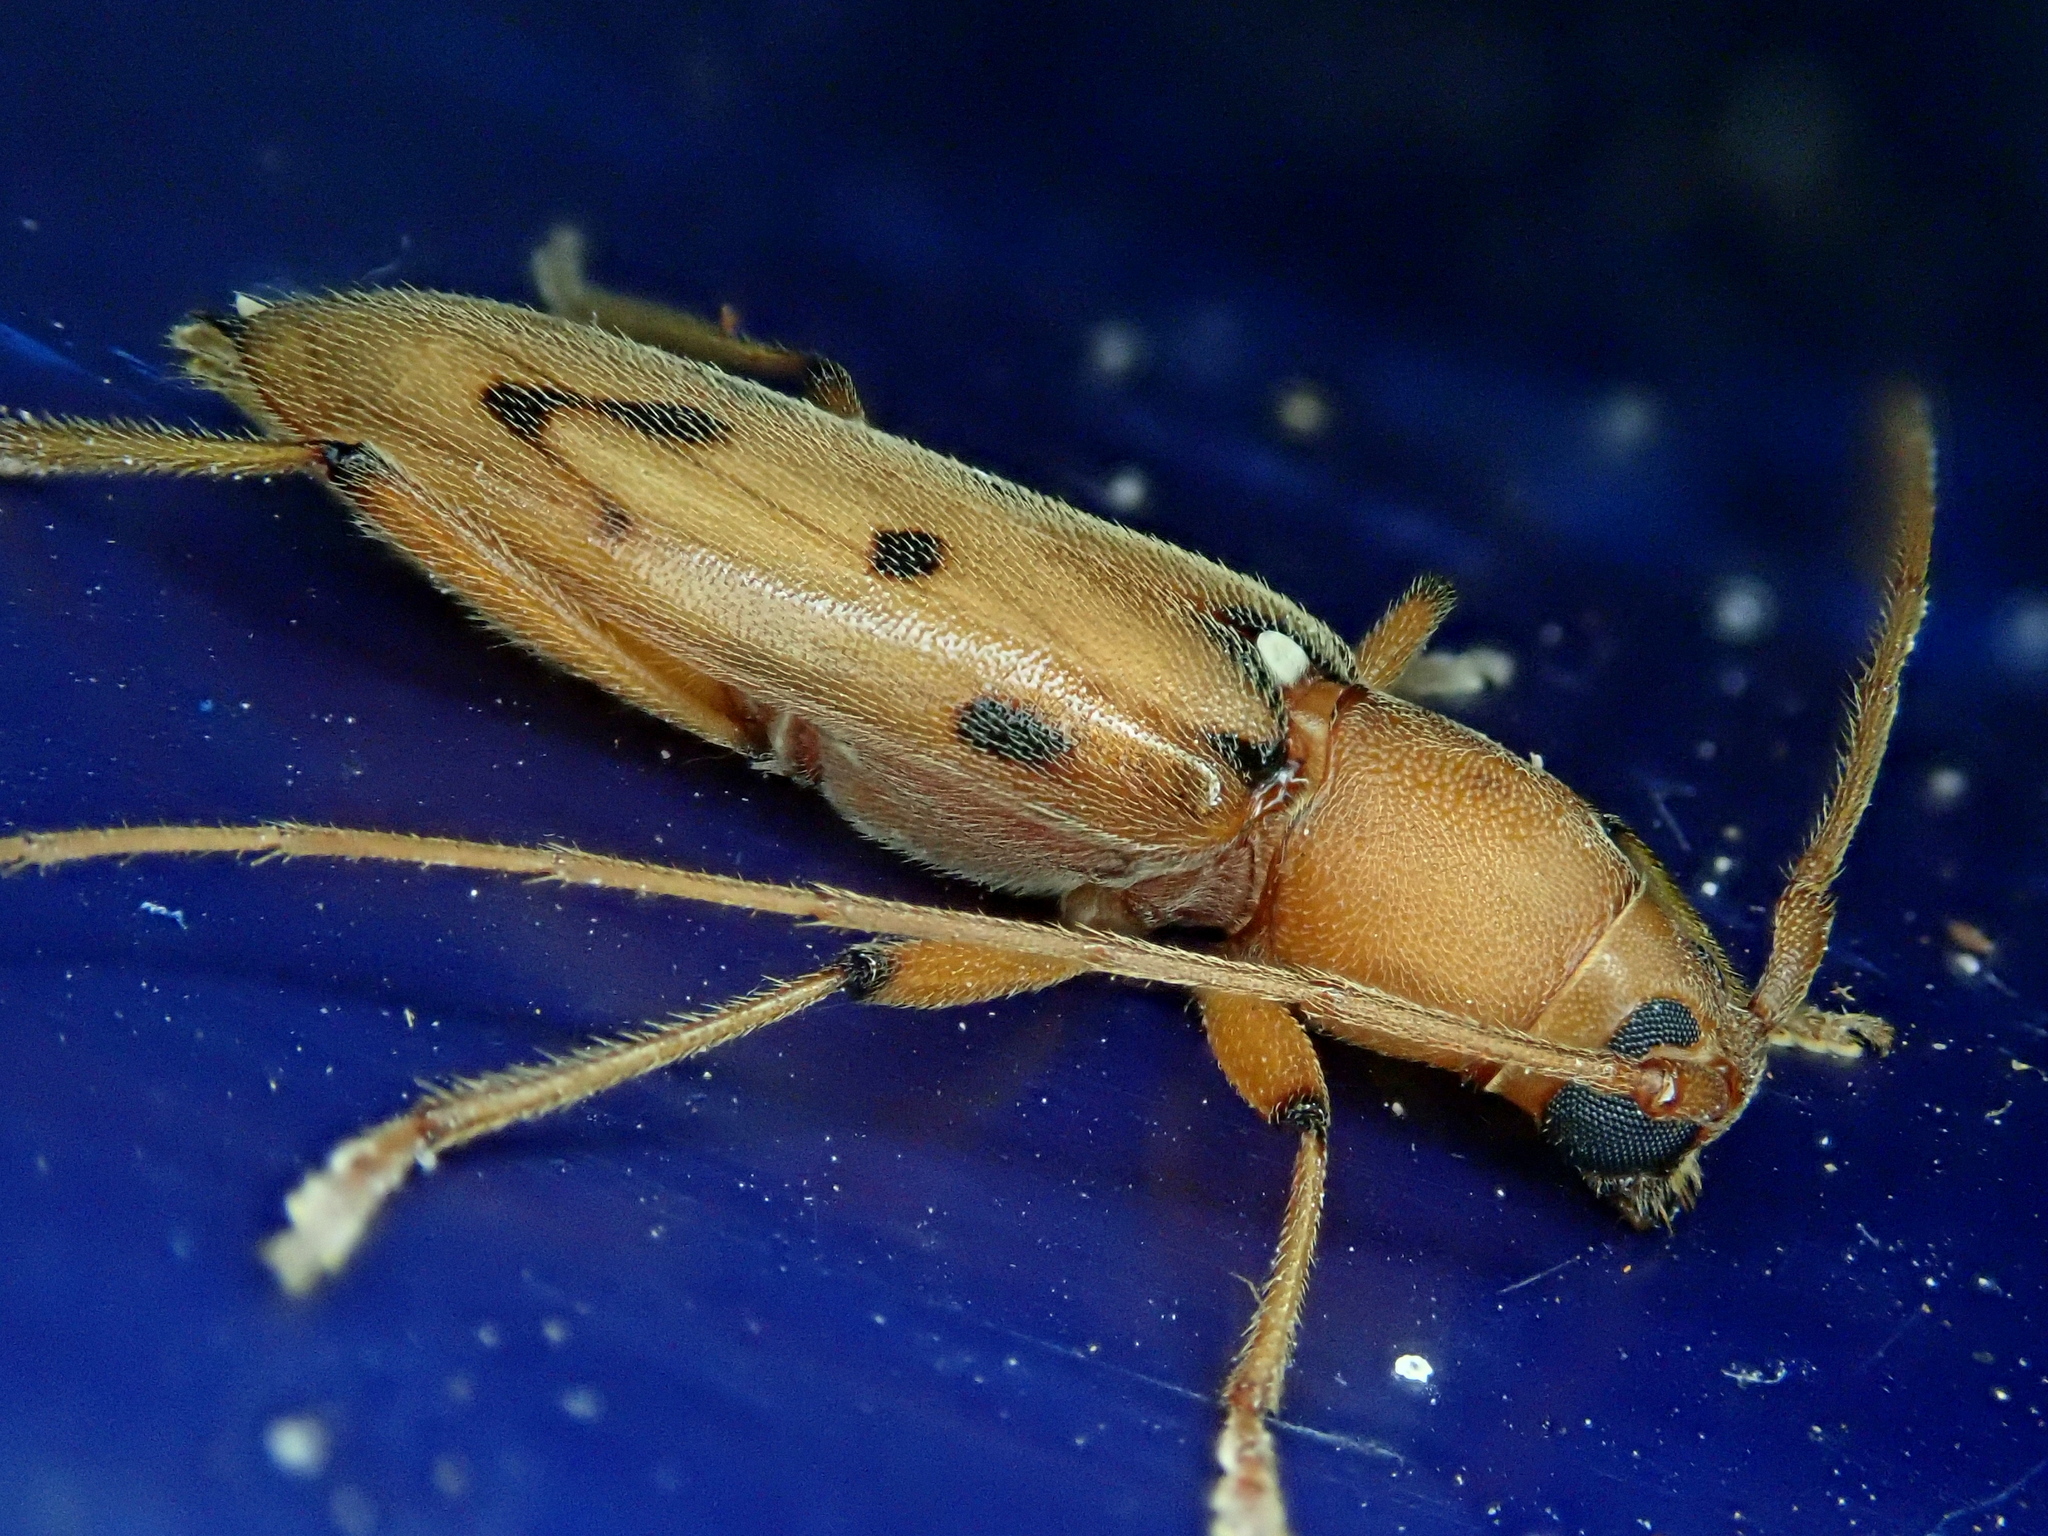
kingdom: Animalia
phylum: Arthropoda
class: Insecta
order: Coleoptera
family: Cerambycidae
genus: Achryson
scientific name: Achryson surinamum
